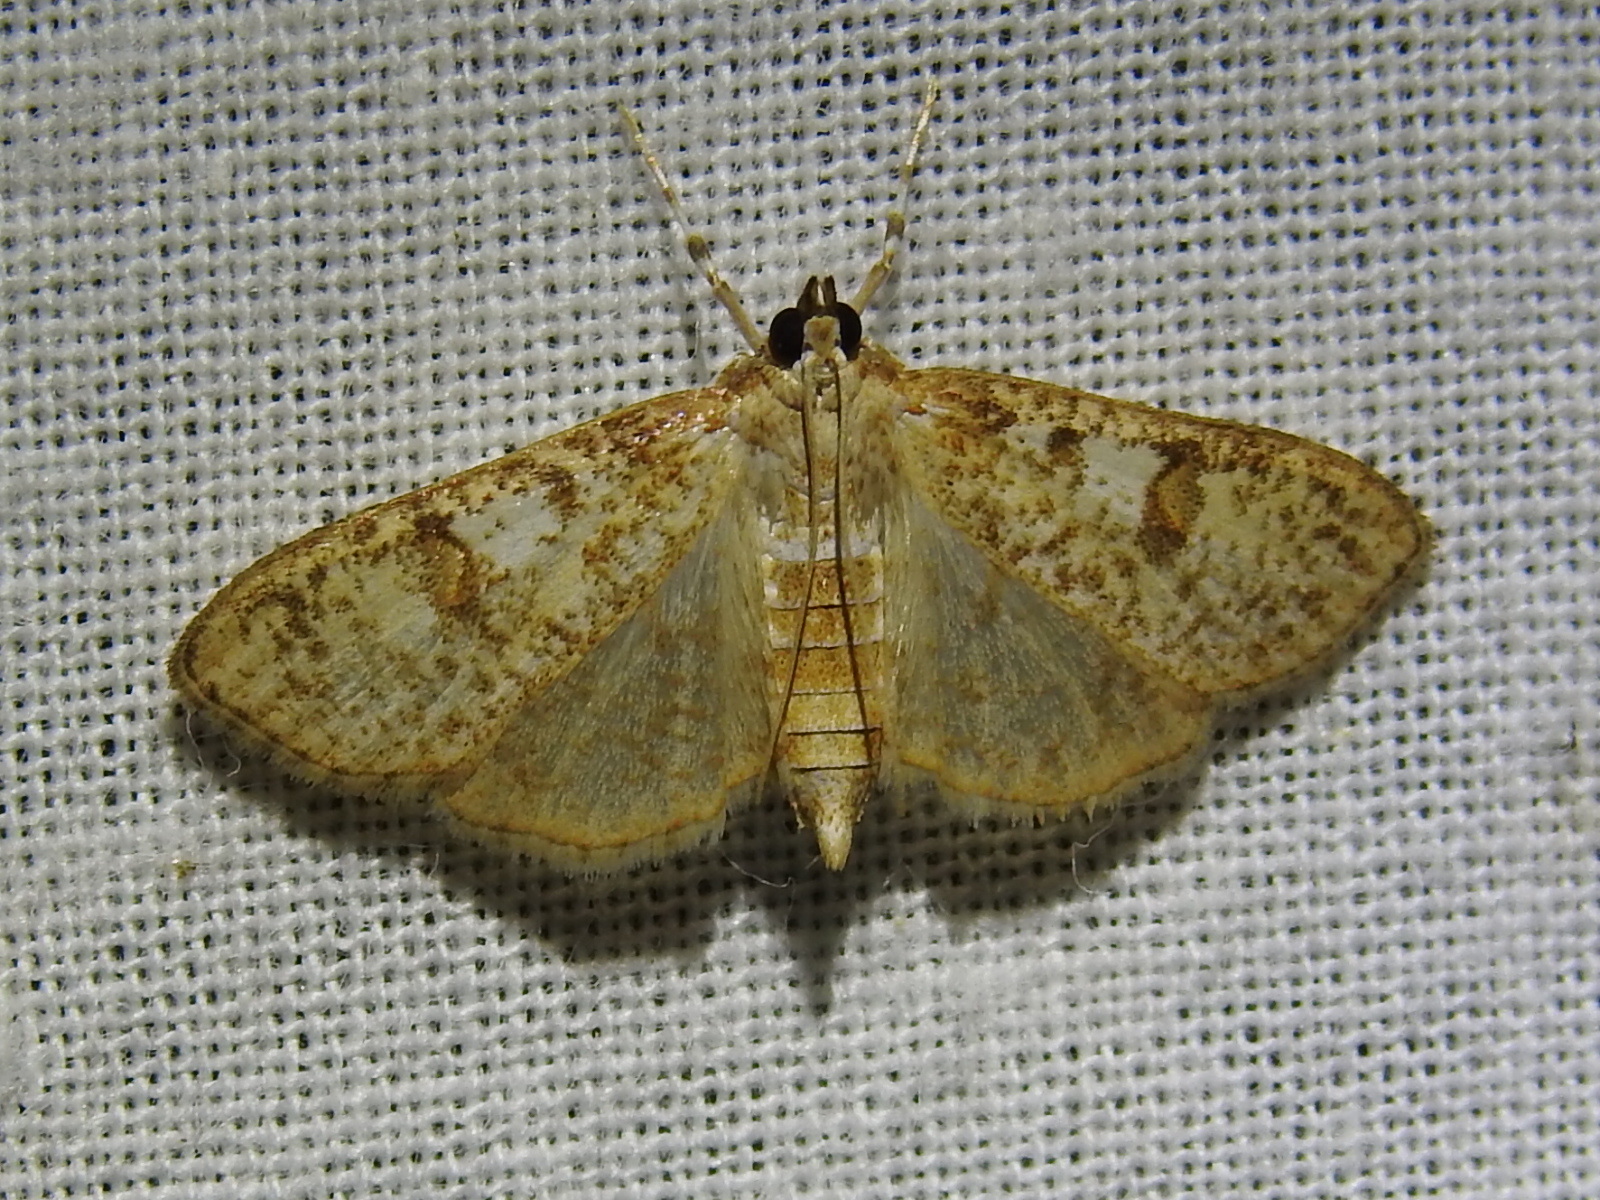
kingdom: Animalia
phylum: Arthropoda
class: Insecta
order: Lepidoptera
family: Crambidae
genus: Palpita
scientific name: Palpita freemanalis
